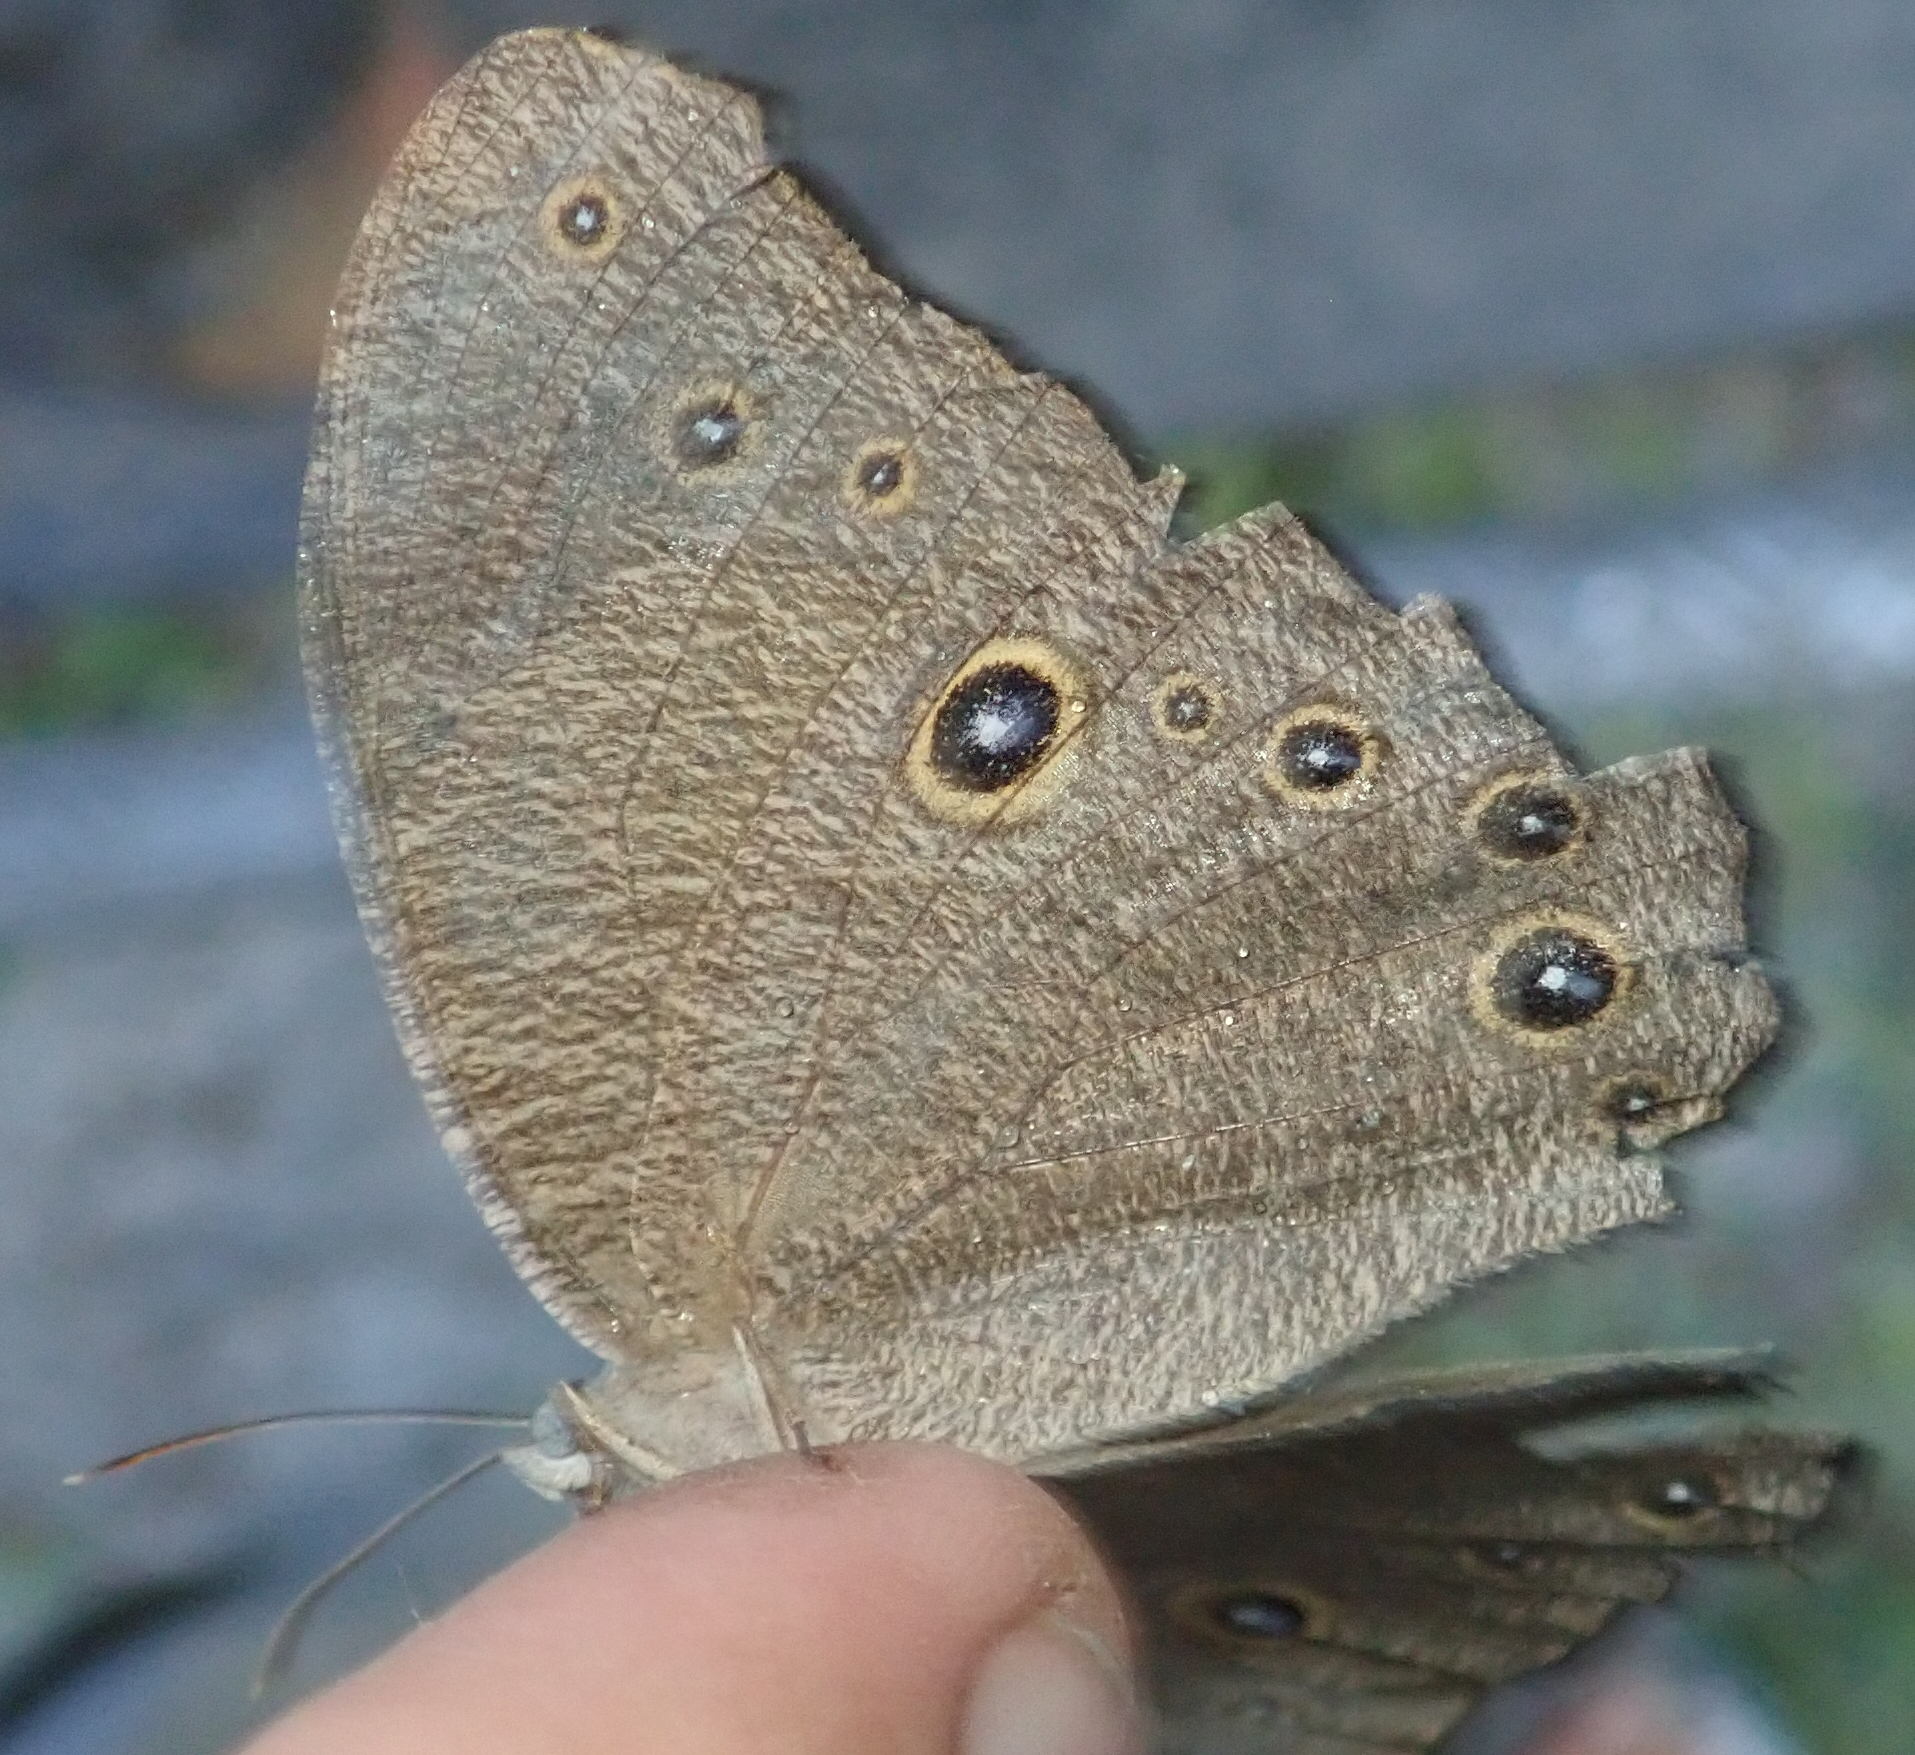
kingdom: Animalia
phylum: Arthropoda
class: Insecta
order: Lepidoptera
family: Nymphalidae
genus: Melanitis
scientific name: Melanitis leda
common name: Twilight brown
